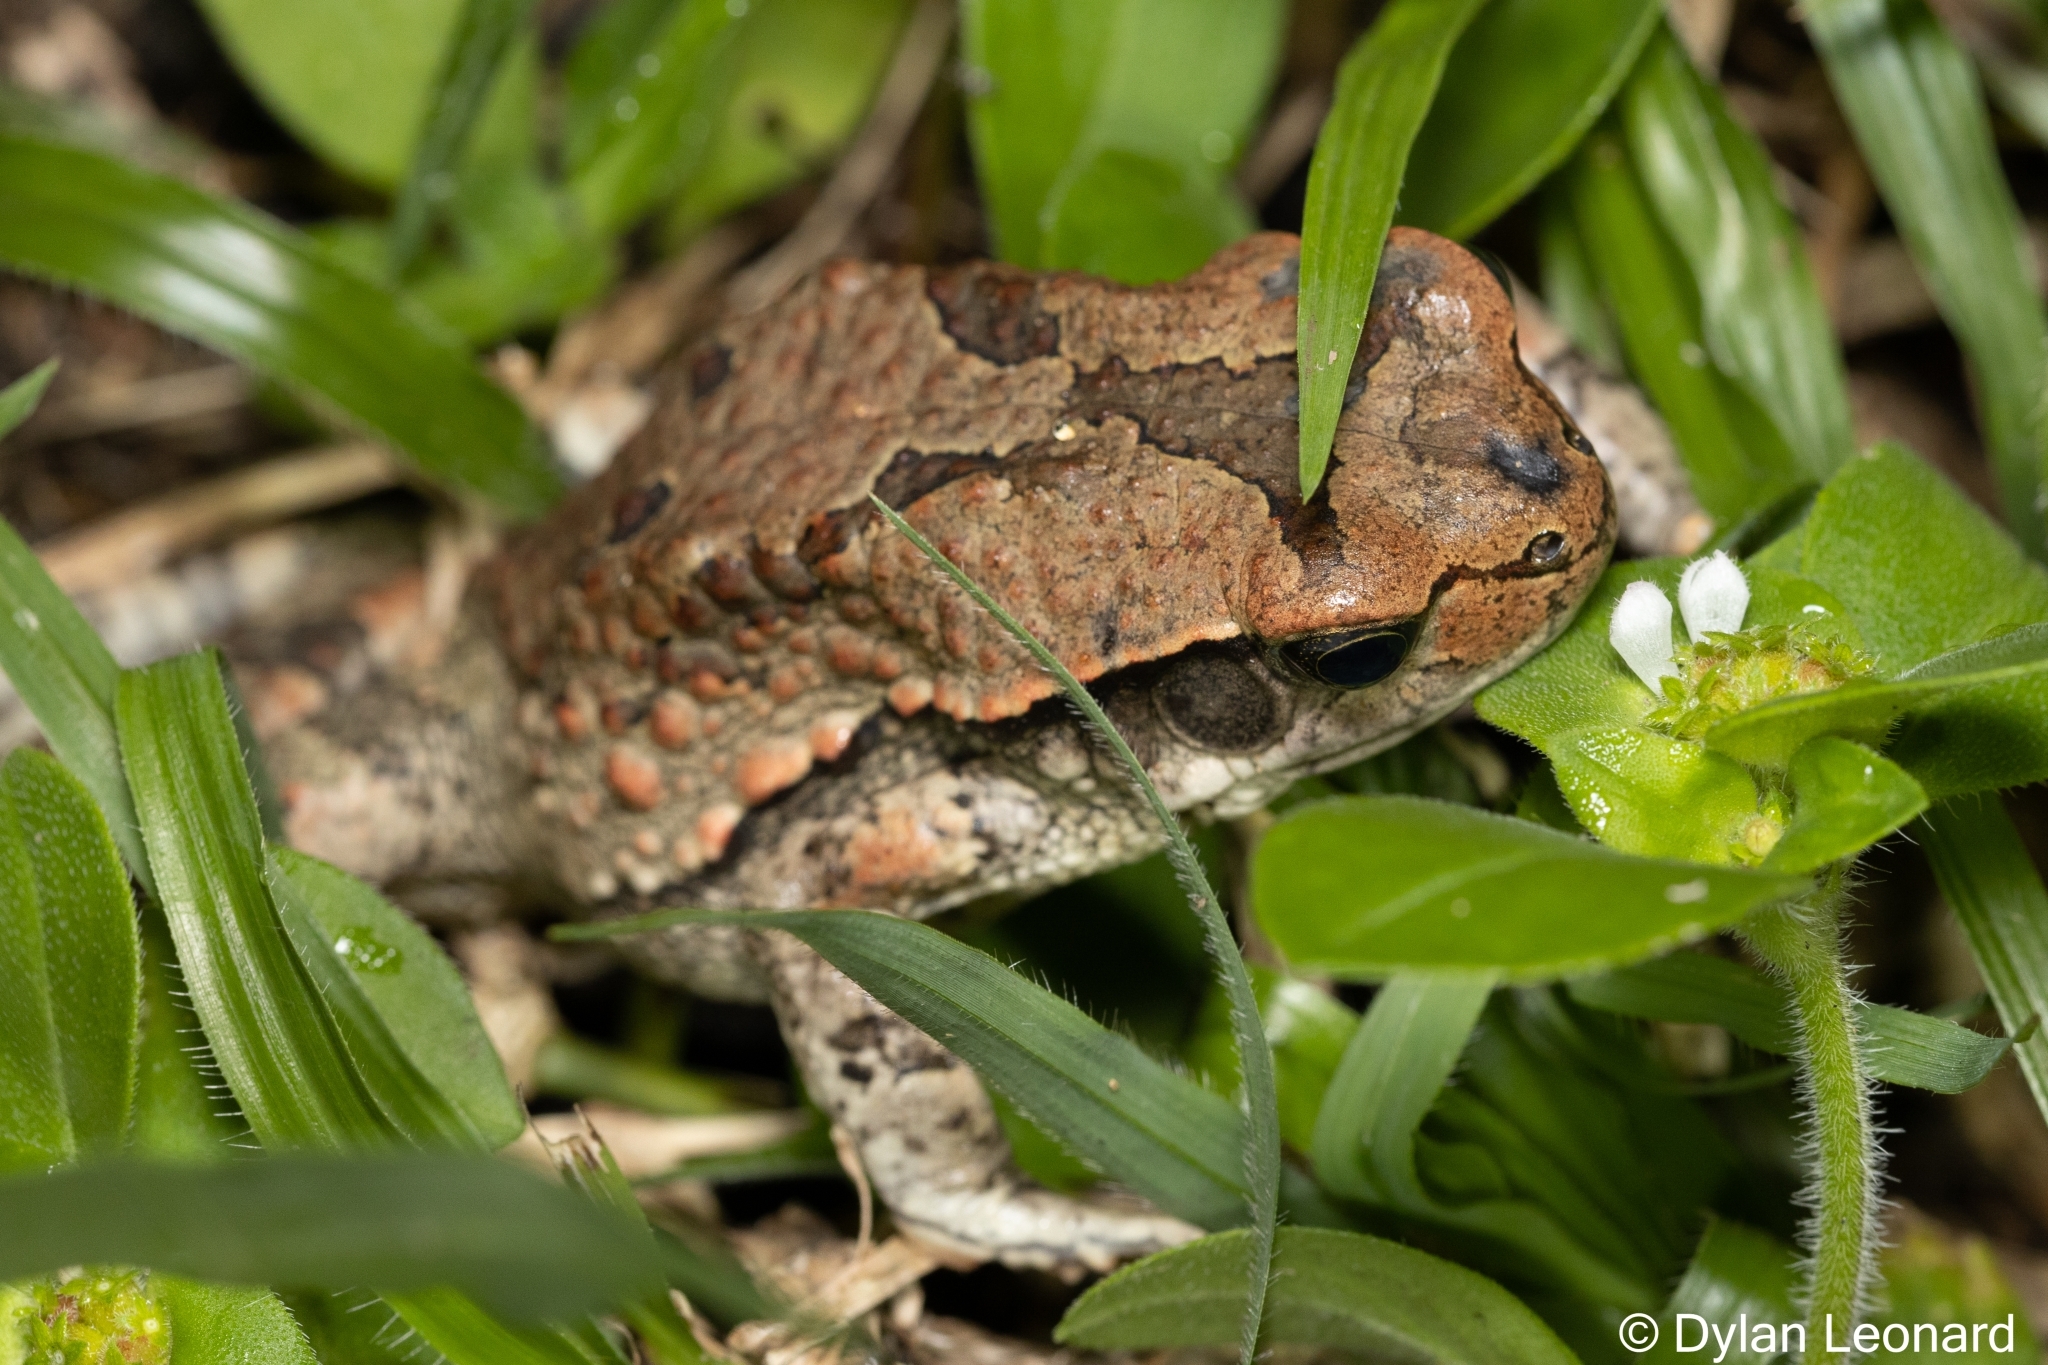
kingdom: Animalia
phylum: Chordata
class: Amphibia
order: Anura
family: Bufonidae
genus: Schismaderma
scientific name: Schismaderma carens
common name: African split-skin toad
